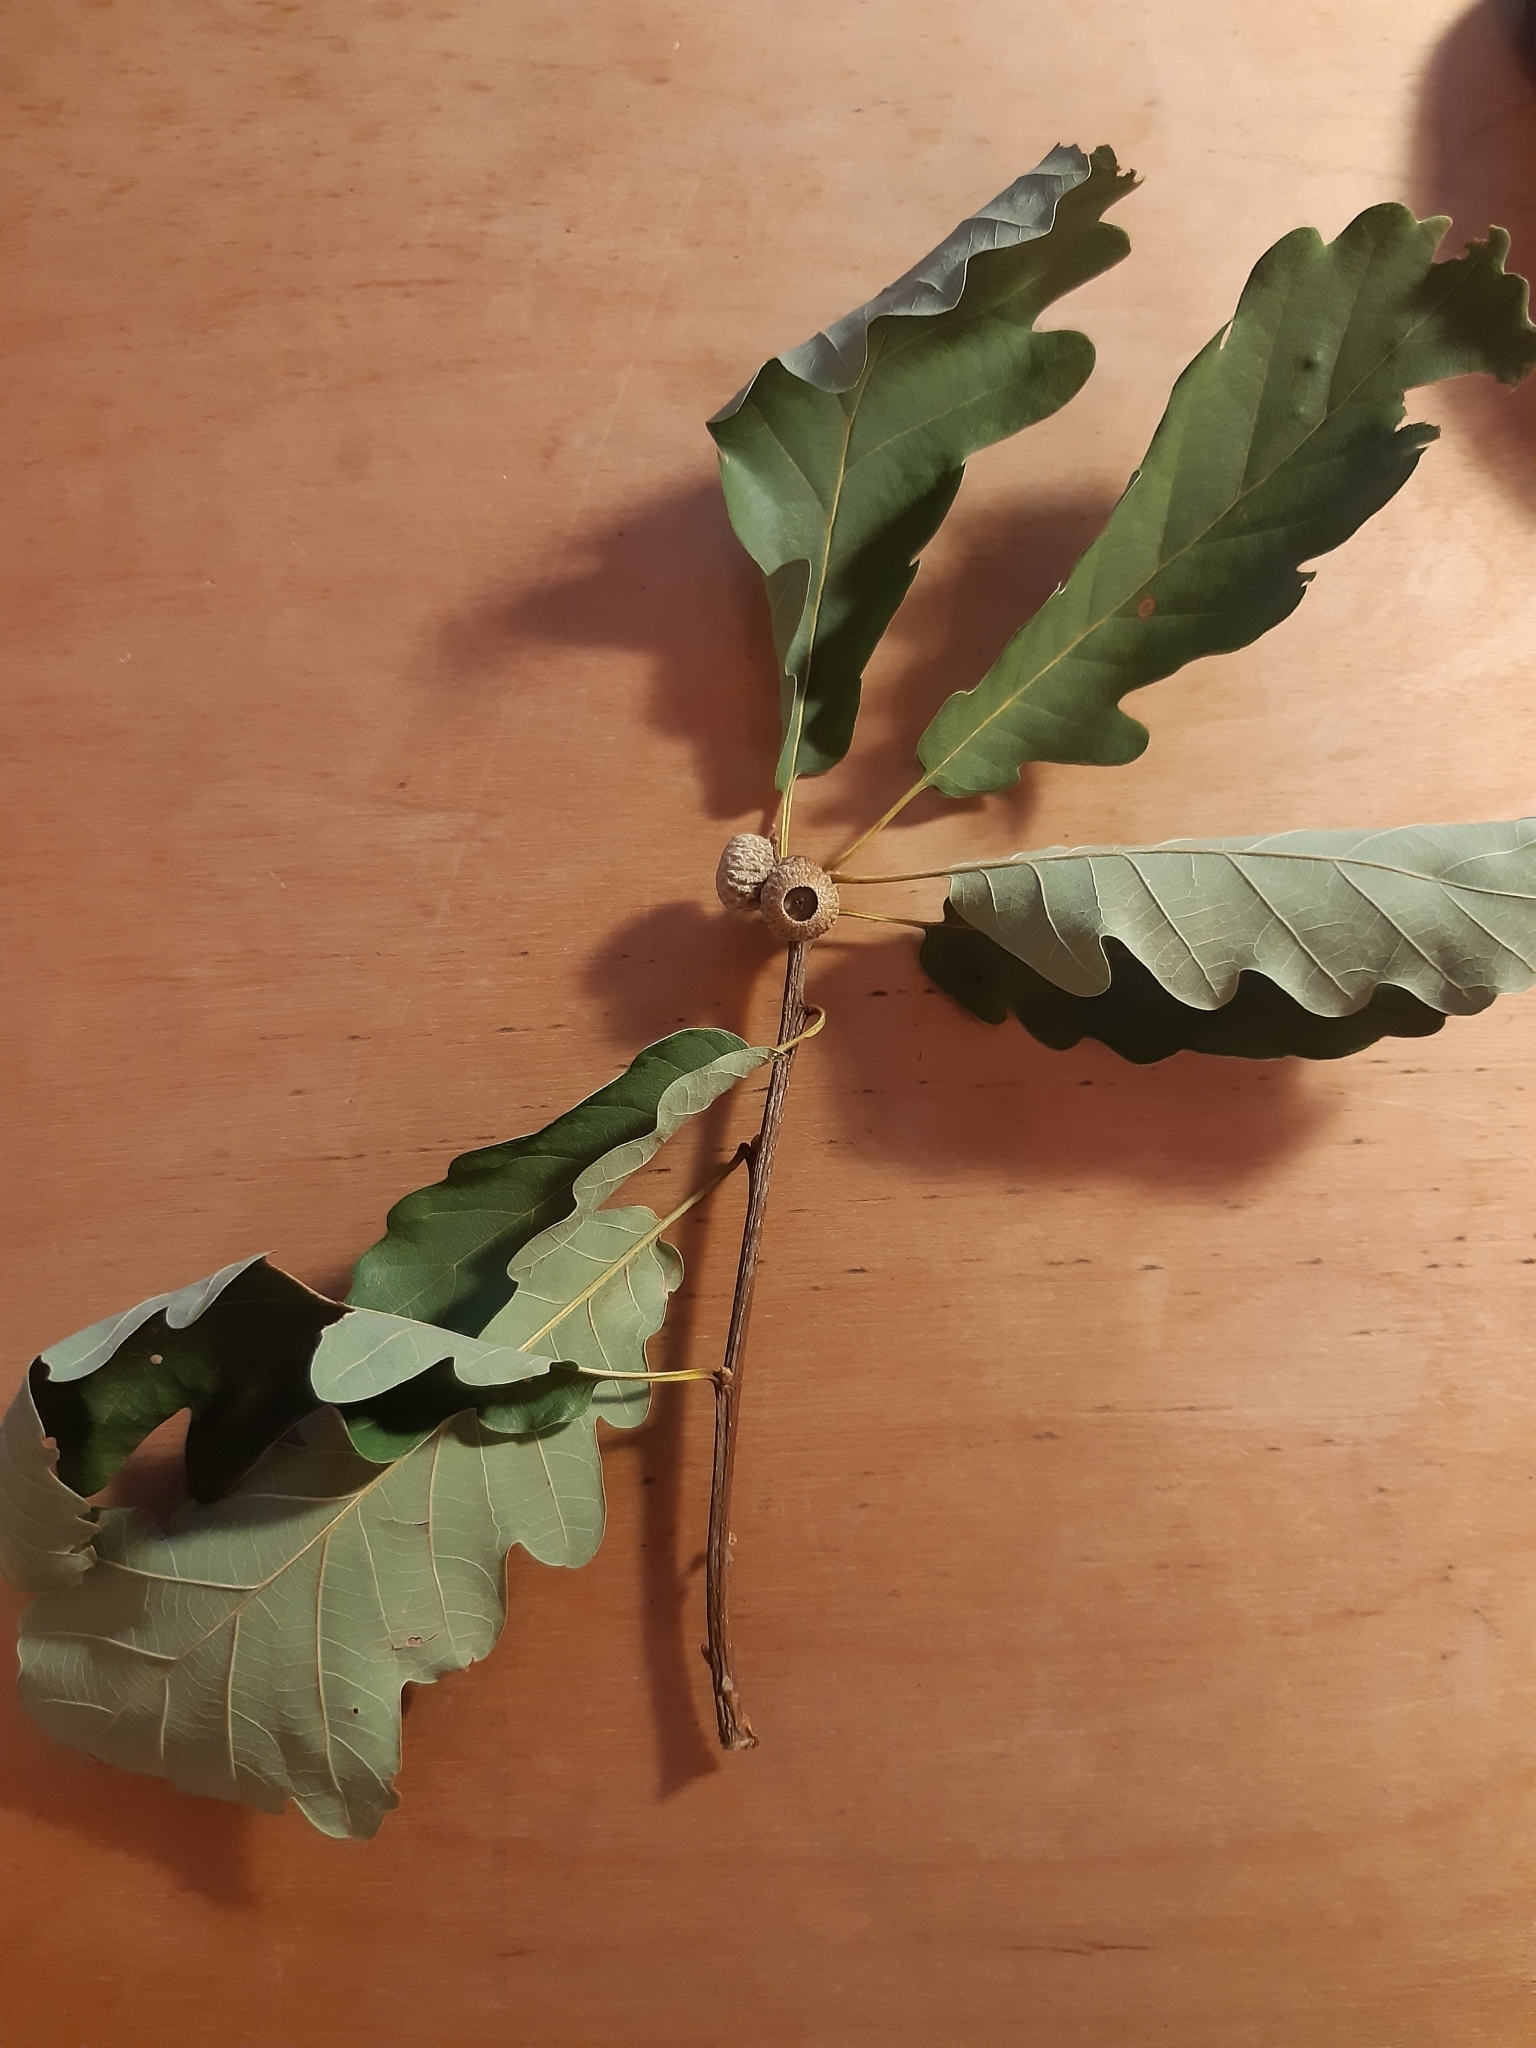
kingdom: Plantae
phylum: Tracheophyta
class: Magnoliopsida
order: Fagales
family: Fagaceae
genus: Quercus
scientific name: Quercus petraea
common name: Sessile oak
